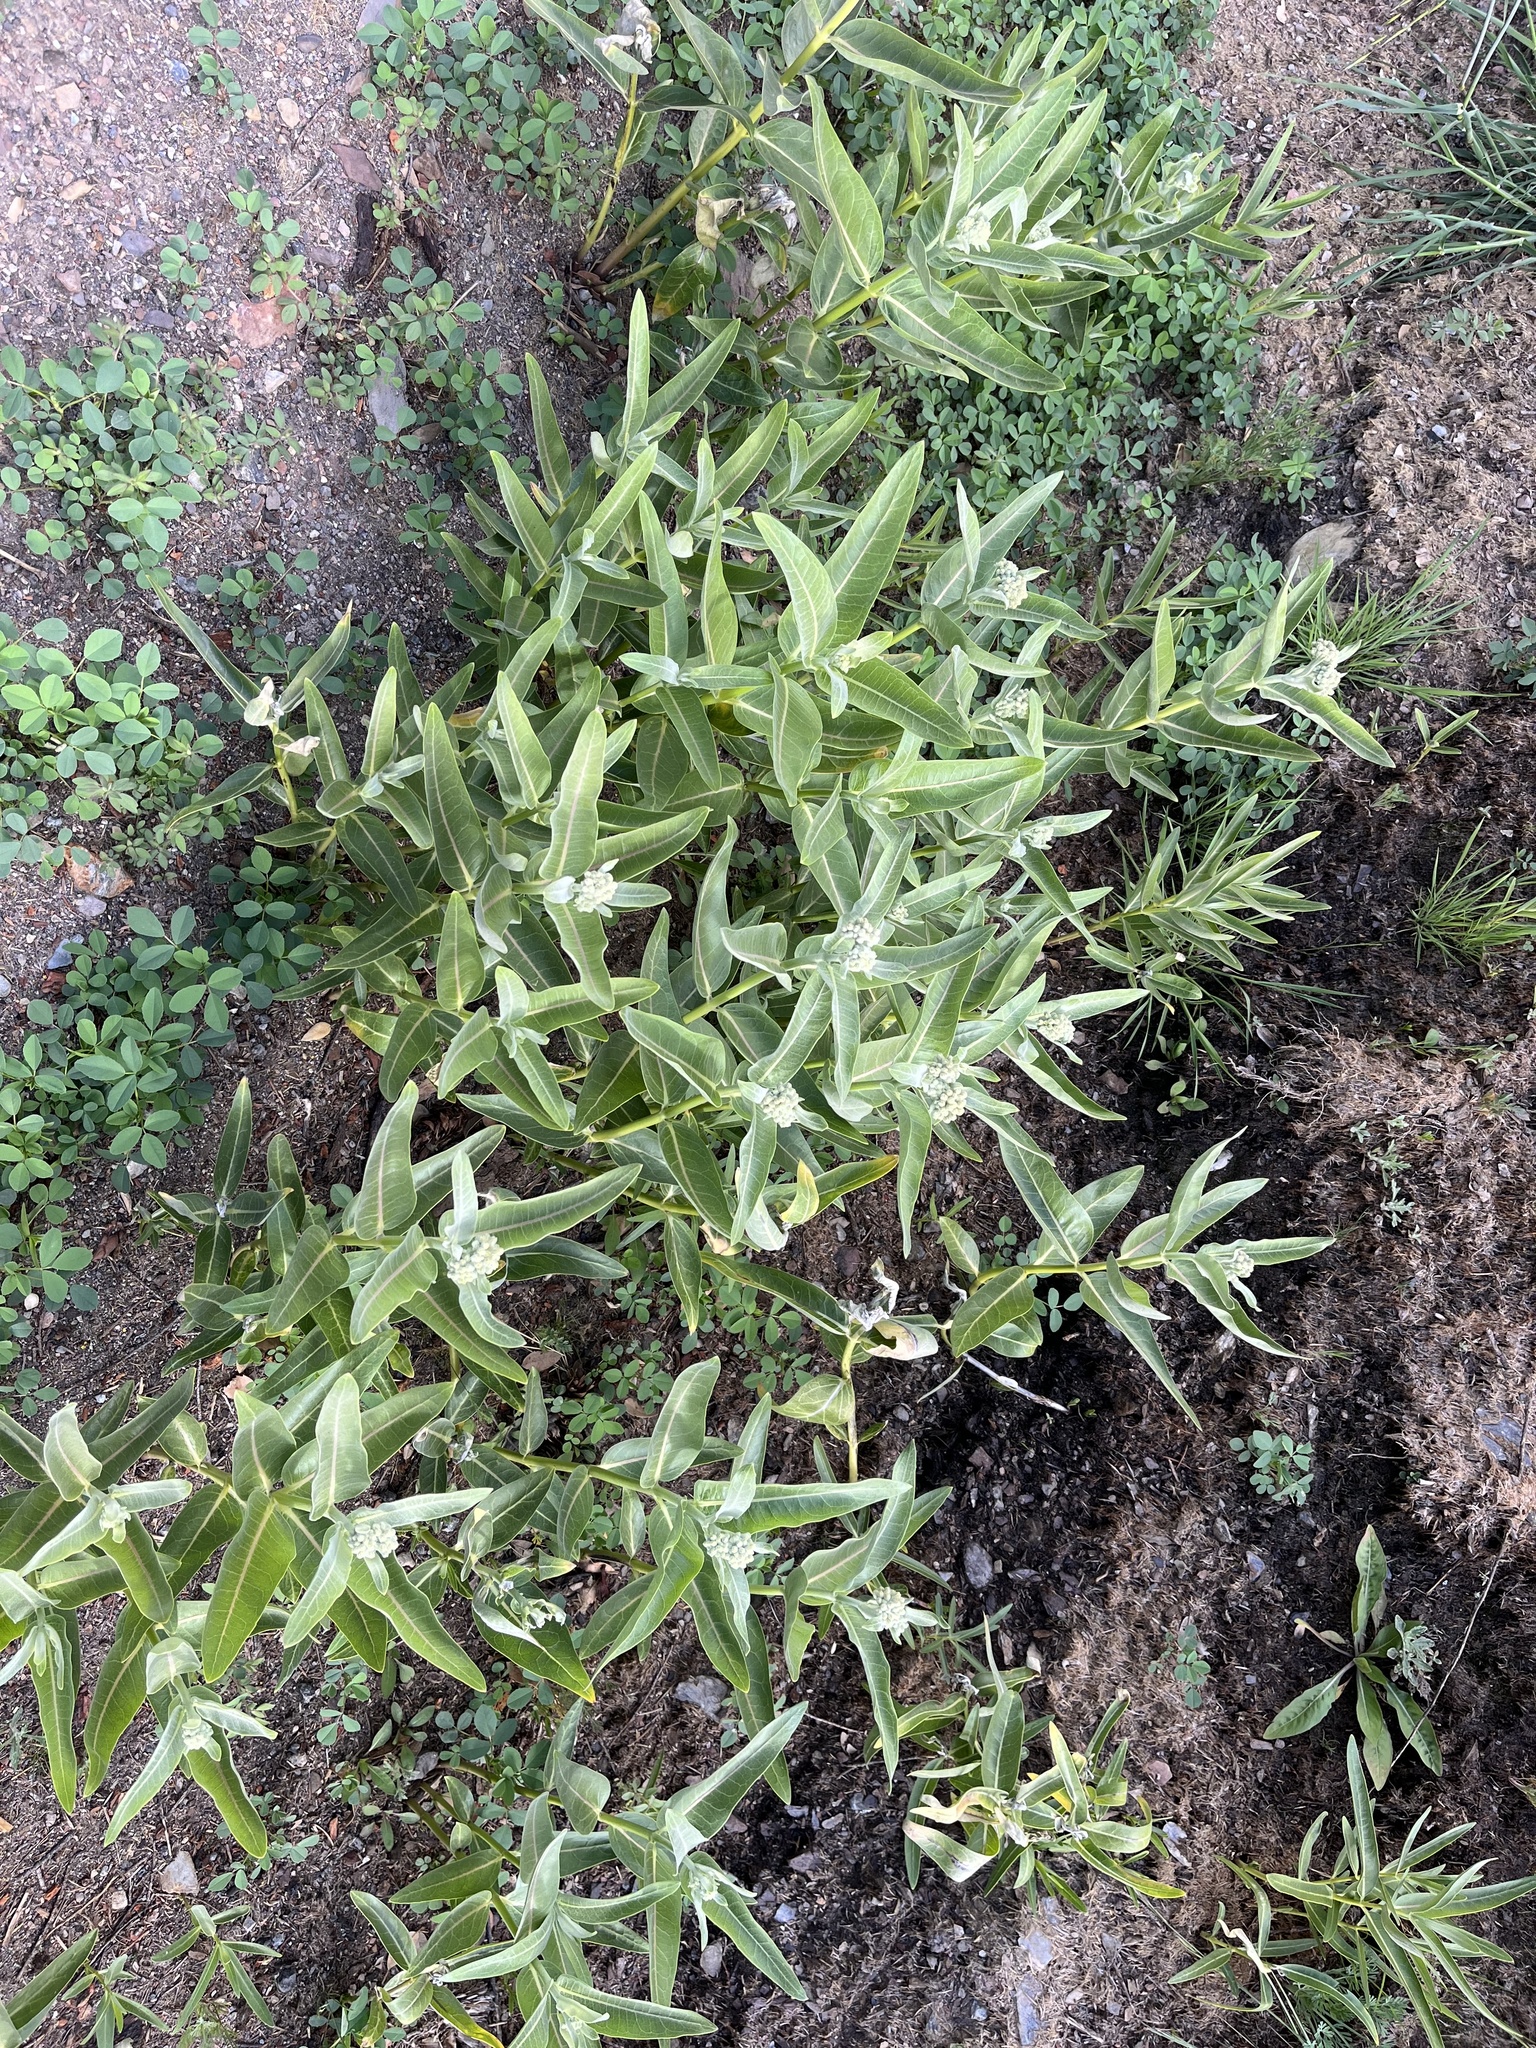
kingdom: Plantae
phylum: Tracheophyta
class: Magnoliopsida
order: Gentianales
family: Apocynaceae
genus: Asclepias
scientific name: Asclepias speciosa
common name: Showy milkweed
